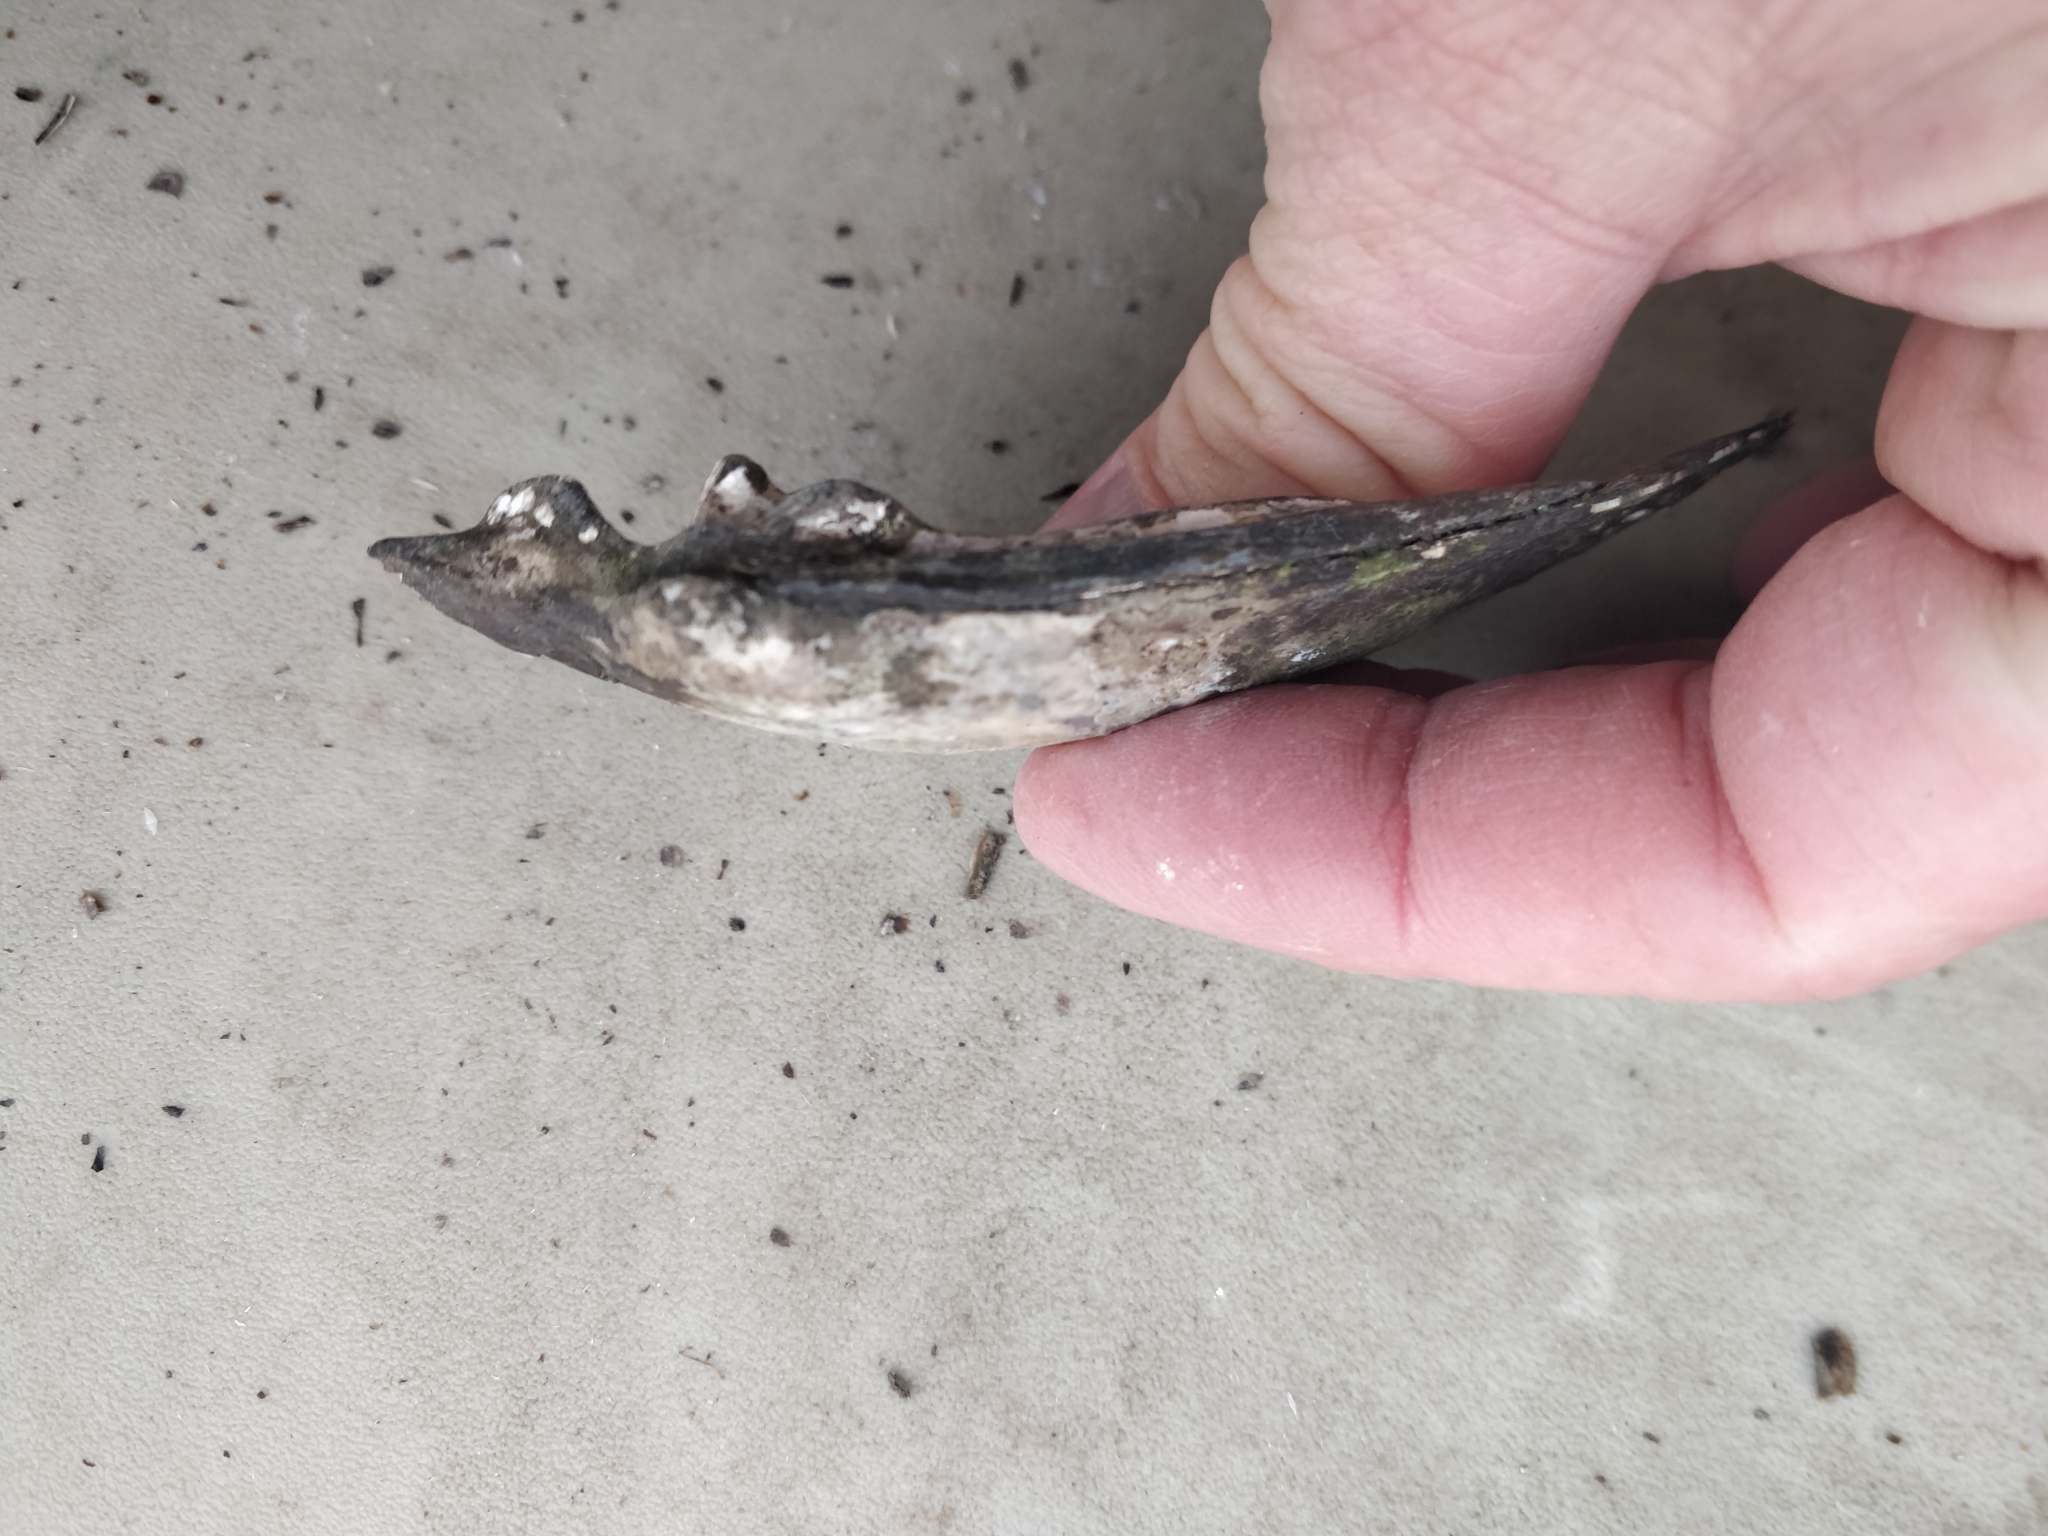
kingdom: Animalia
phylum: Mollusca
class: Bivalvia
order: Unionida
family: Unionidae
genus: Lasmigona
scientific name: Lasmigona complanata
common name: White heelsplitter
